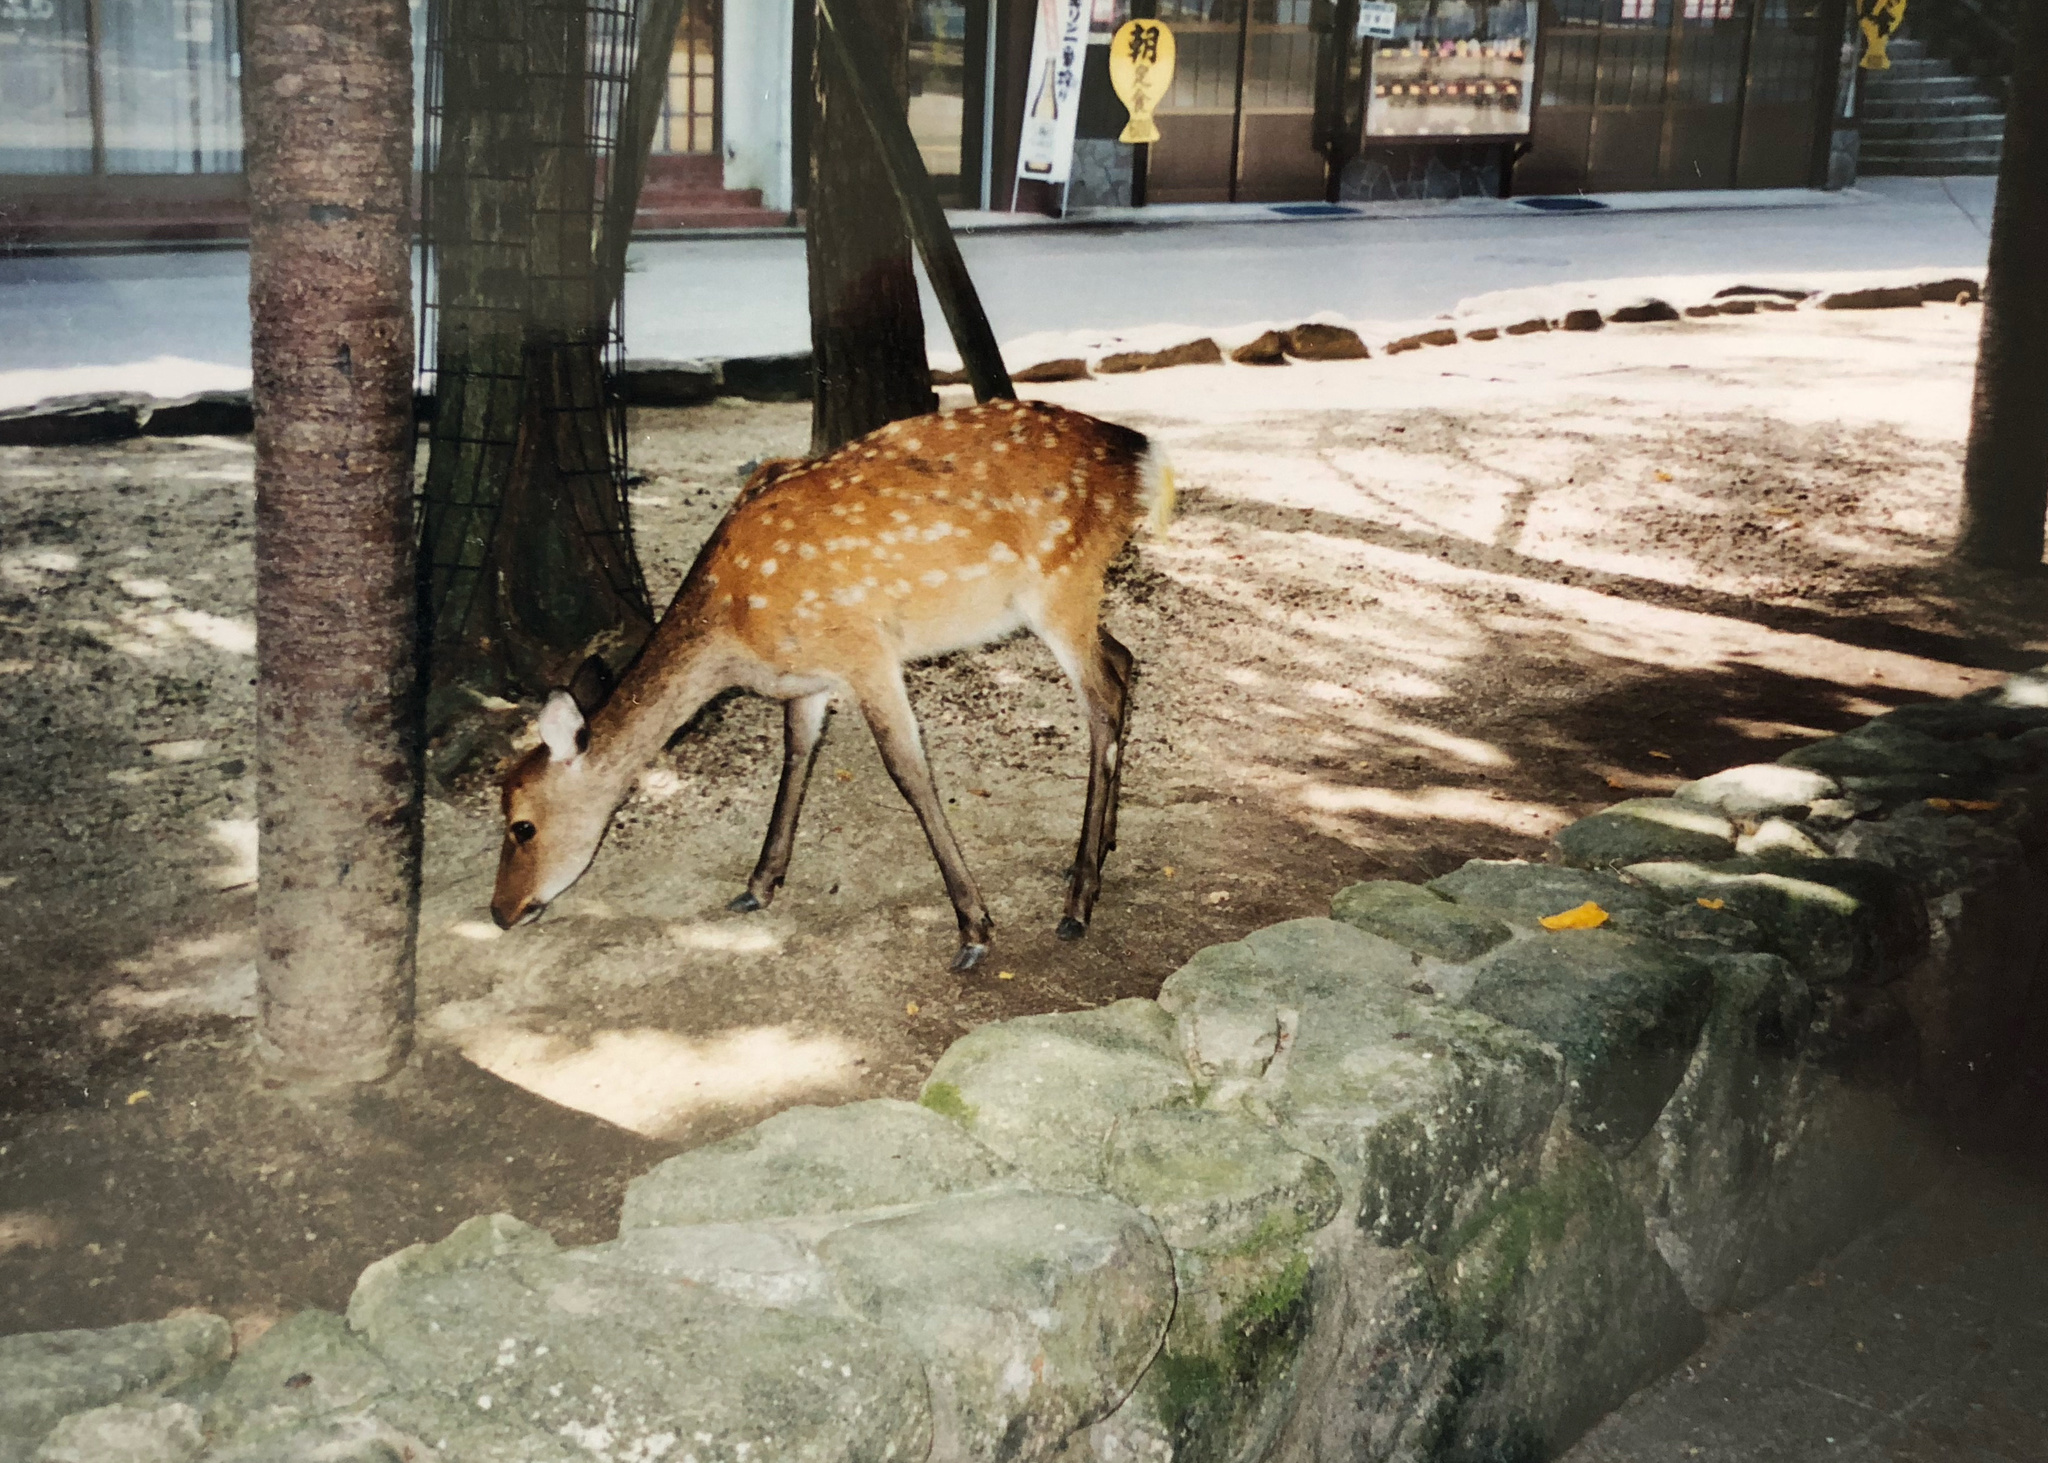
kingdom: Animalia
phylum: Chordata
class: Mammalia
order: Artiodactyla
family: Cervidae
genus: Cervus
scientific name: Cervus nippon
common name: Sika deer
